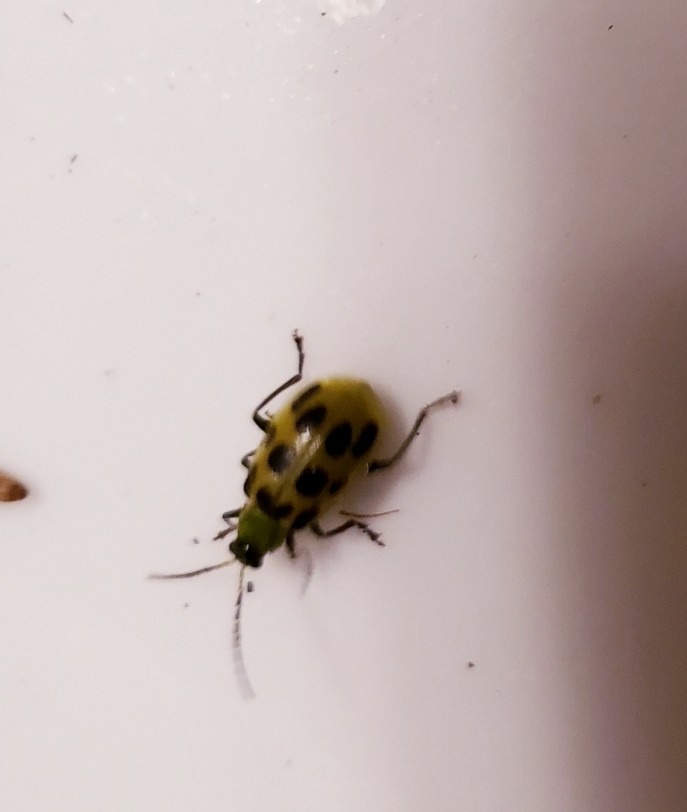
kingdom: Animalia
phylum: Arthropoda
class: Insecta
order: Coleoptera
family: Chrysomelidae
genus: Diabrotica
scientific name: Diabrotica undecimpunctata
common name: Spotted cucumber beetle
